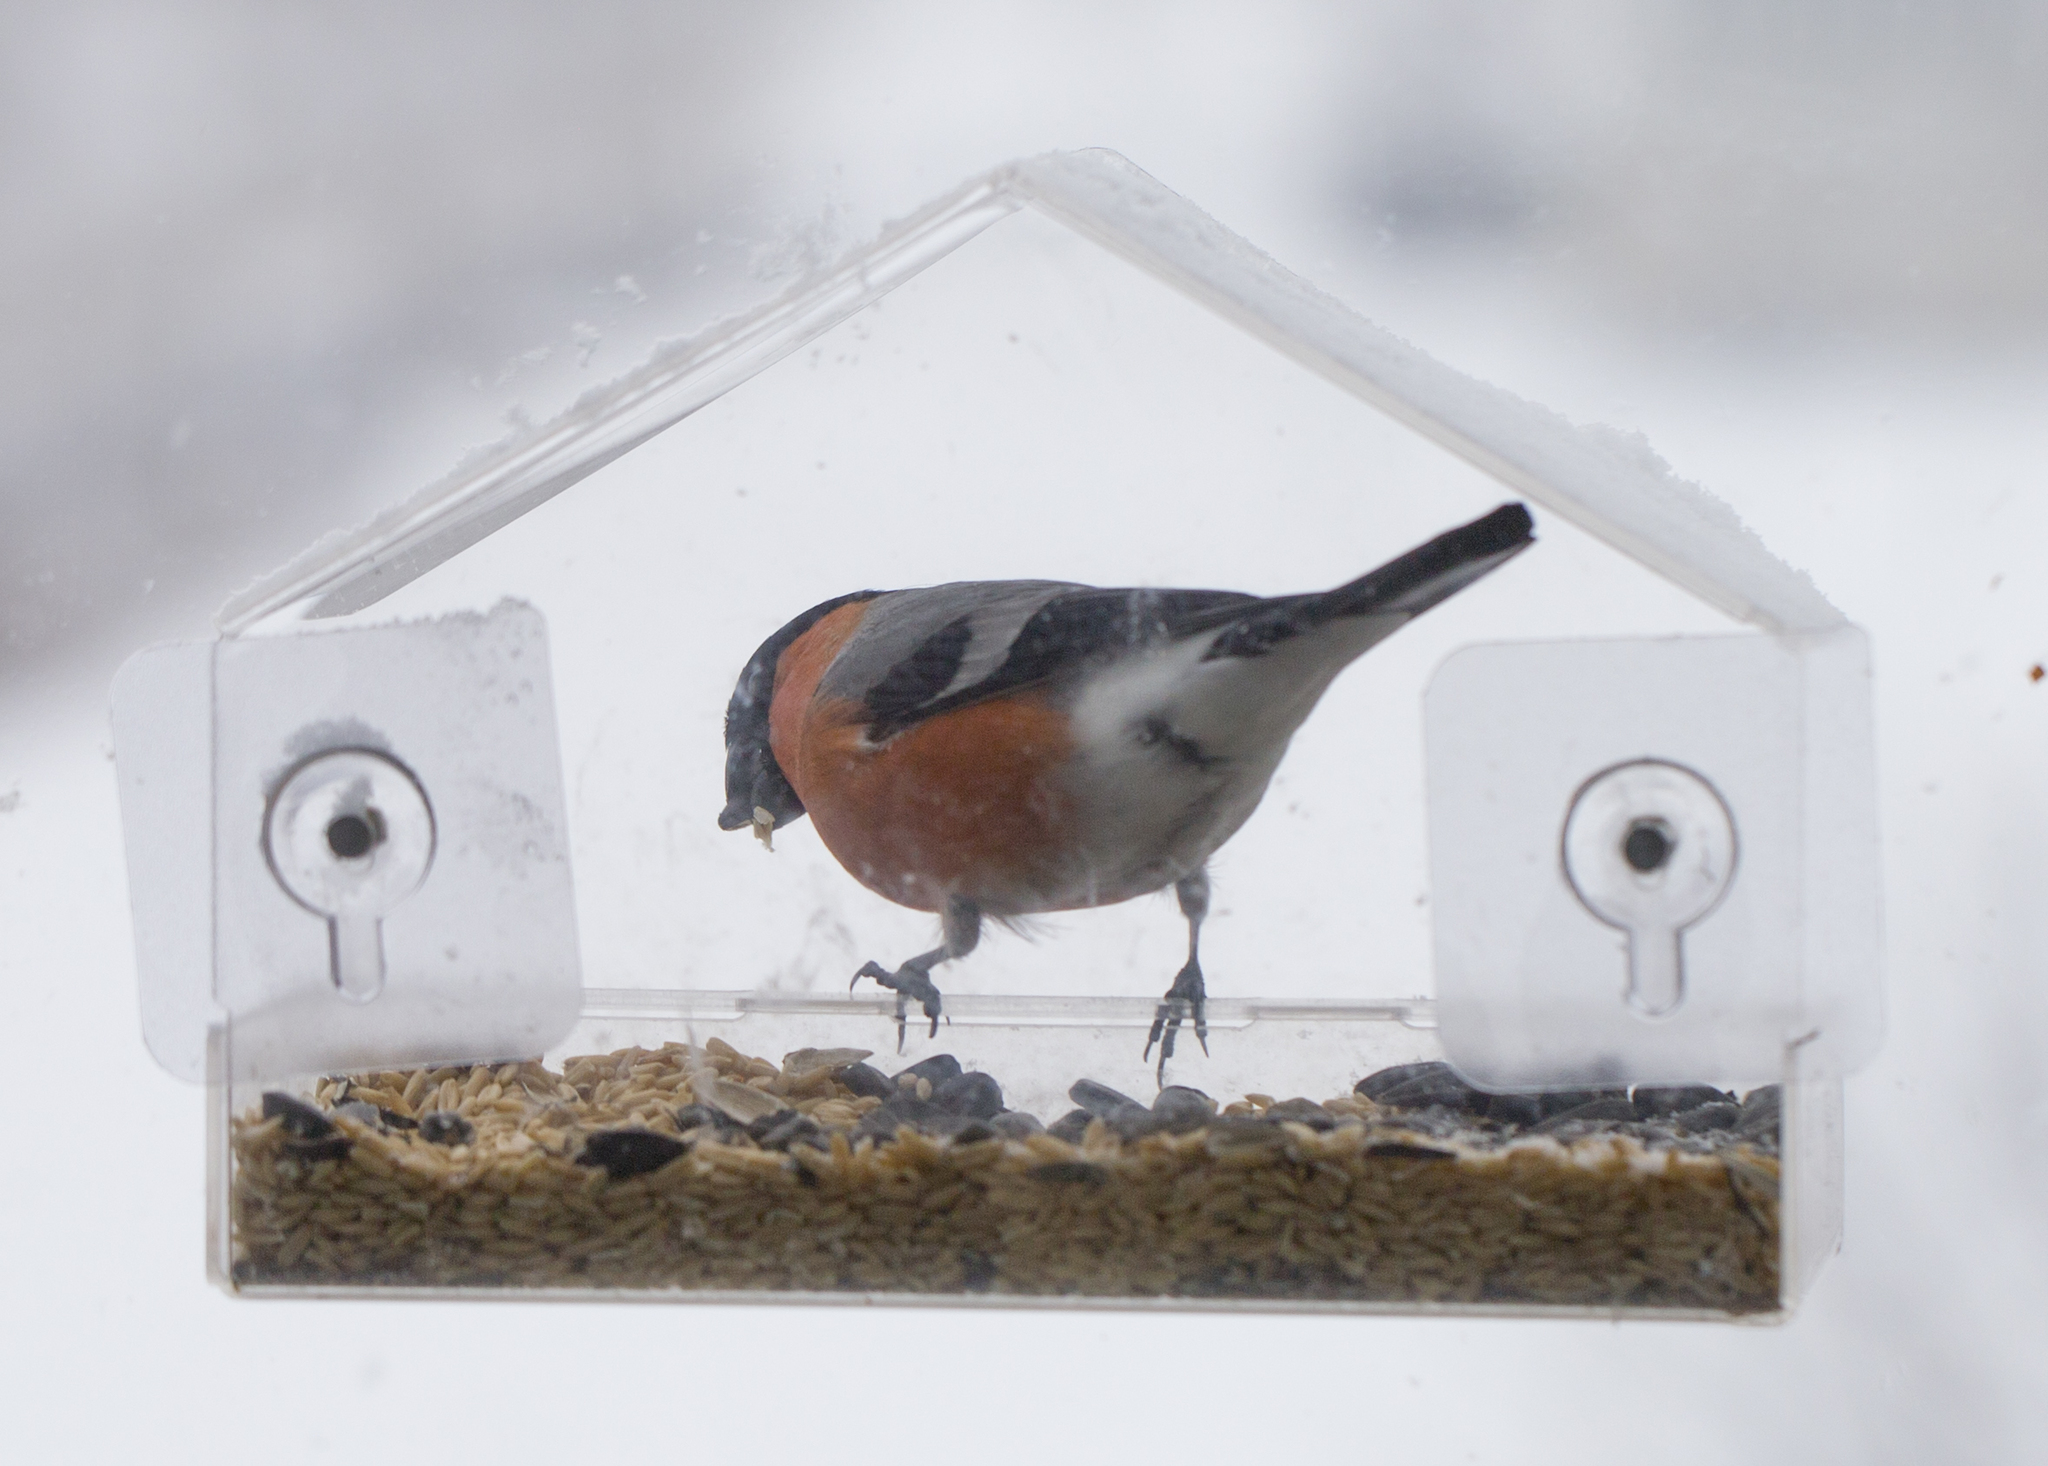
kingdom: Animalia
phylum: Chordata
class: Aves
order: Passeriformes
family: Fringillidae
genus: Pyrrhula
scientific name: Pyrrhula pyrrhula
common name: Eurasian bullfinch
